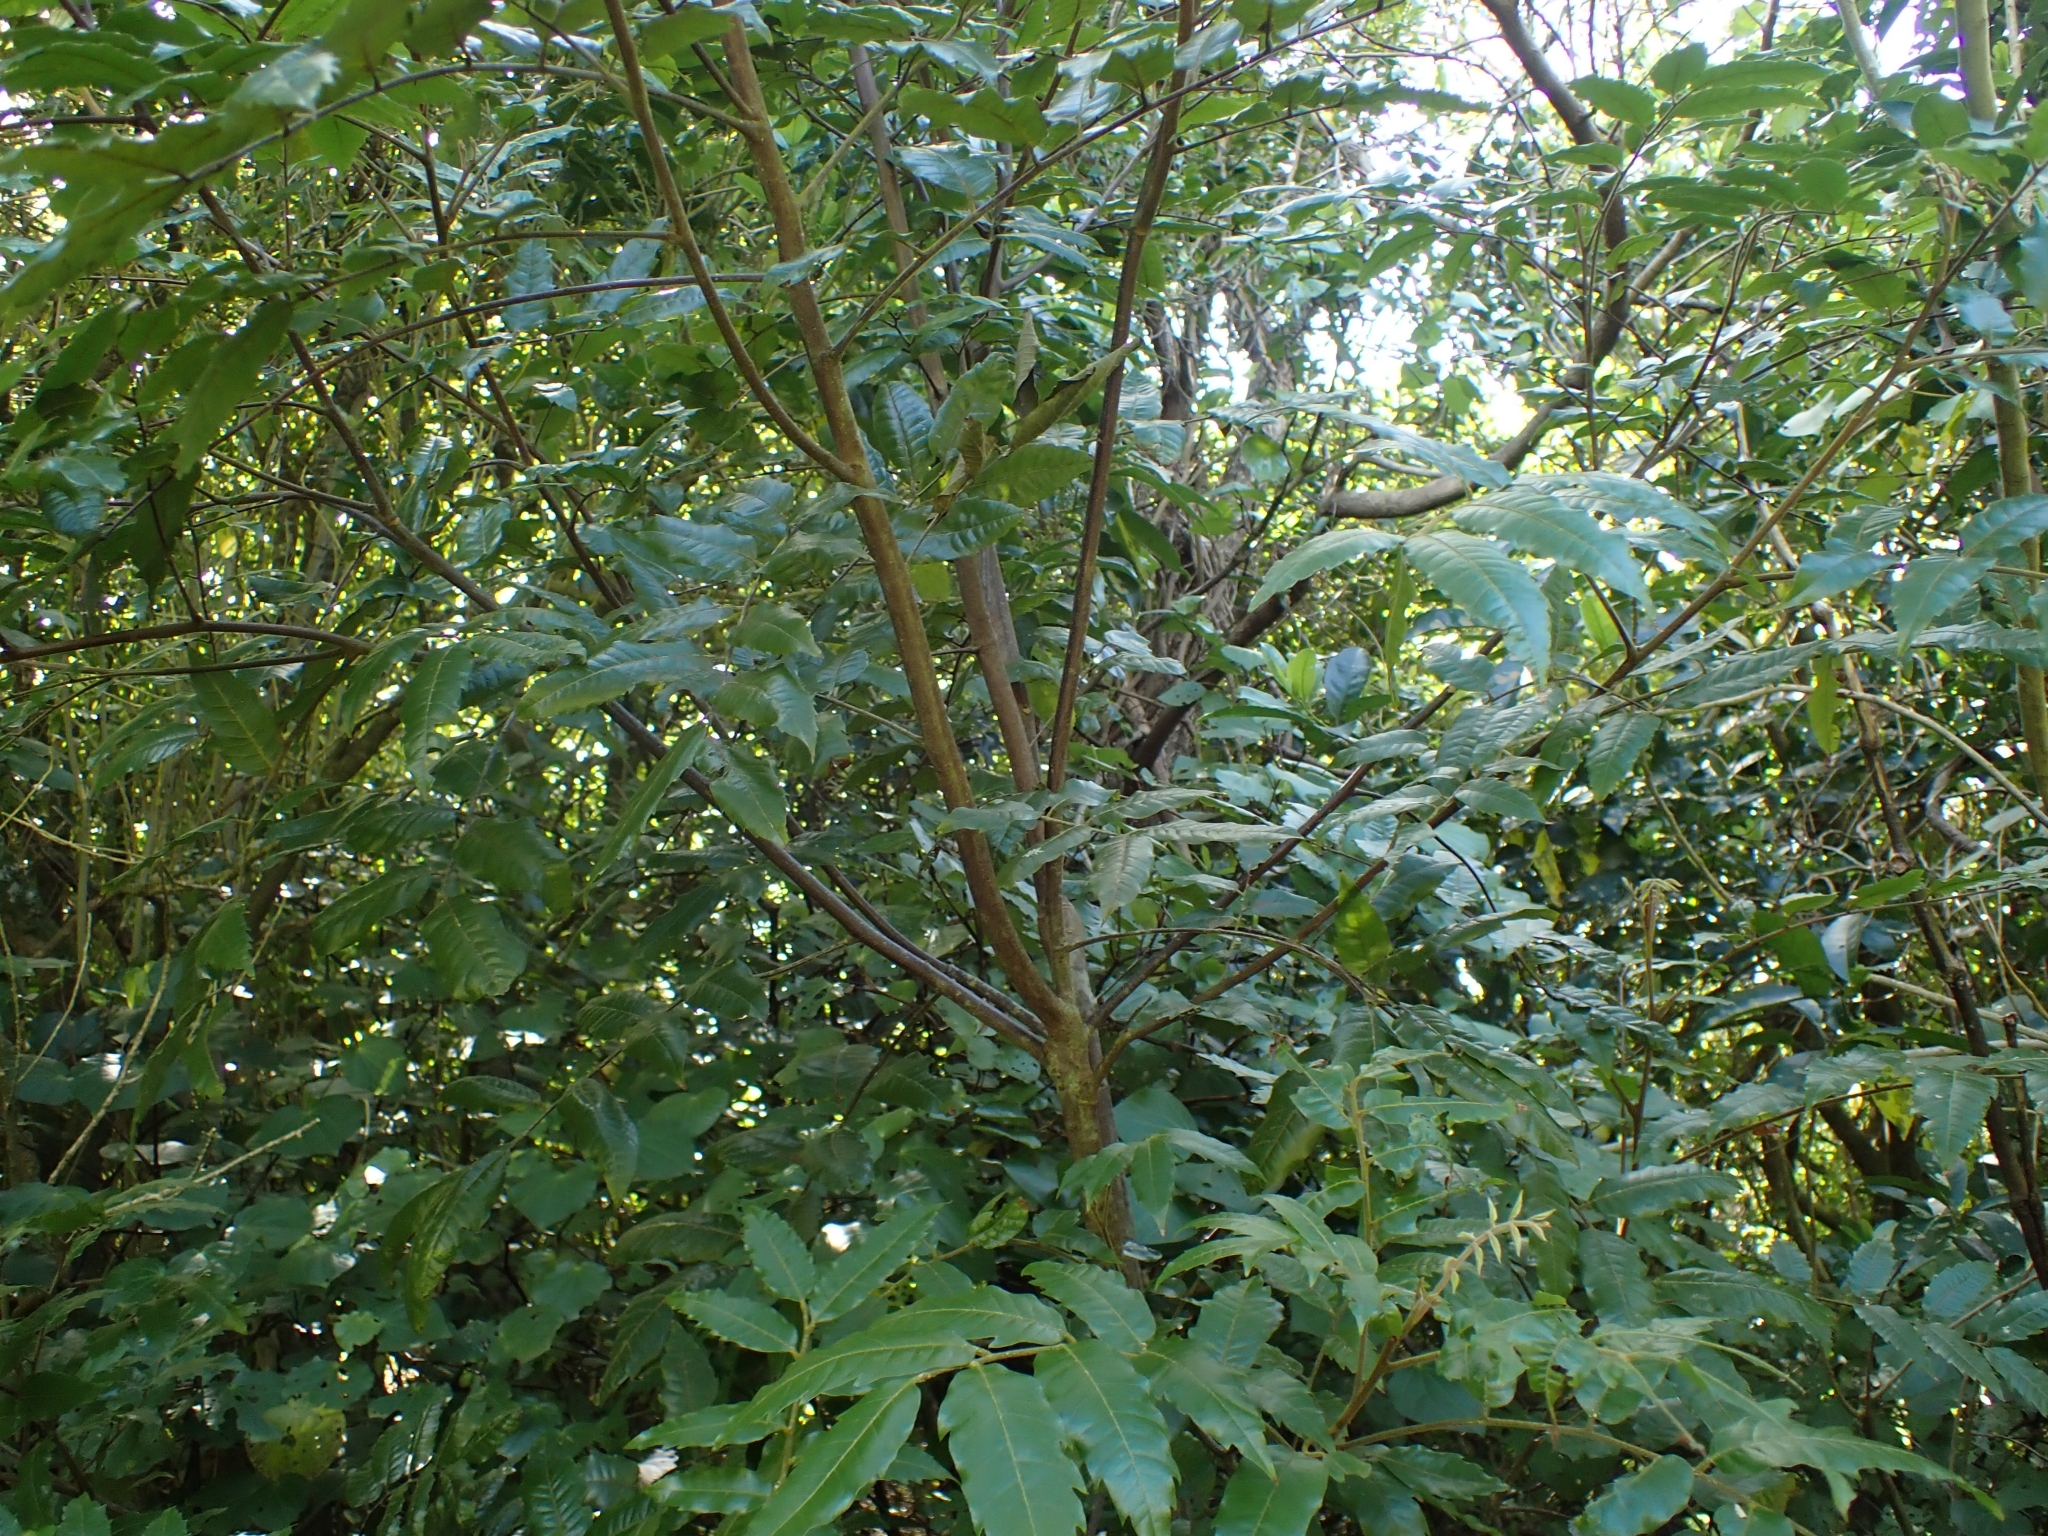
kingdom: Plantae
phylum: Tracheophyta
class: Magnoliopsida
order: Sapindales
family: Meliaceae
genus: Didymocheton
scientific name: Didymocheton spectabilis
